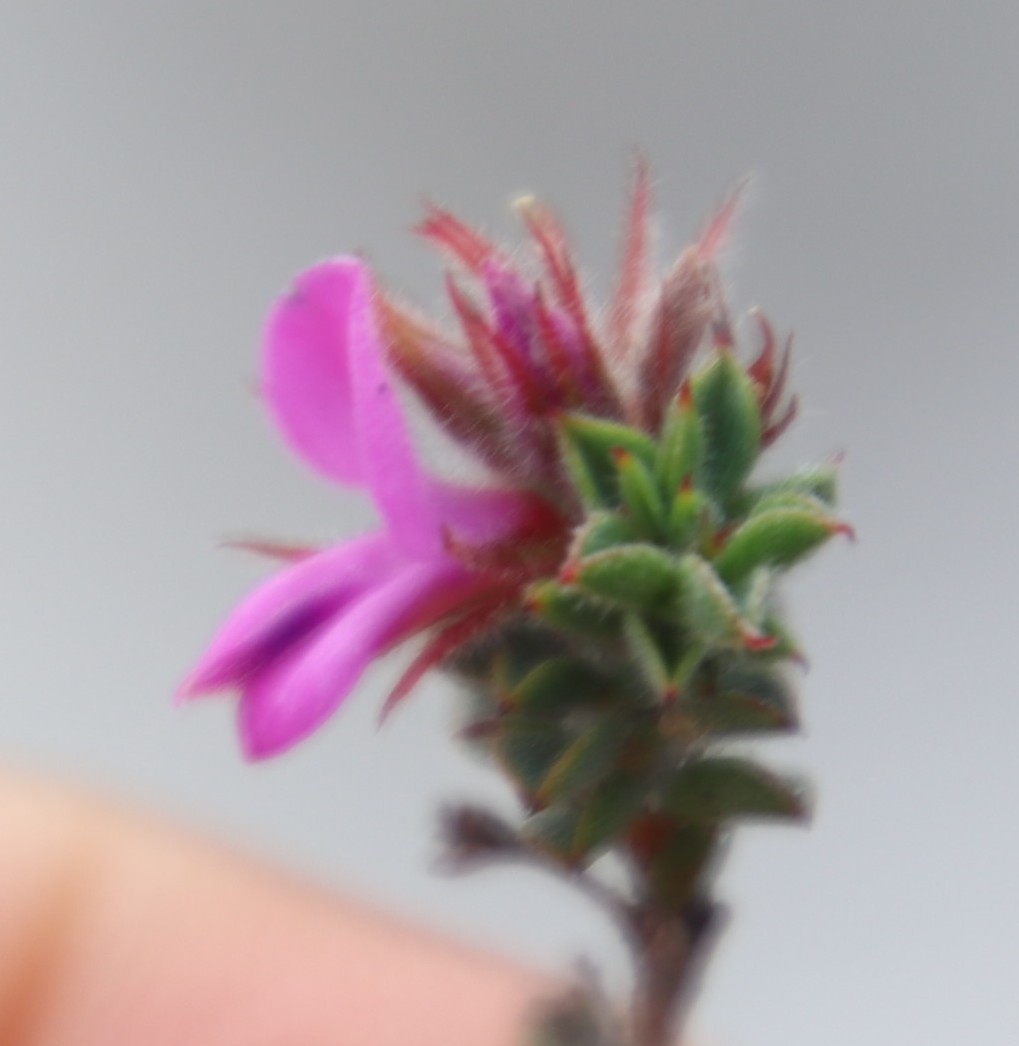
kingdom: Plantae
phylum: Tracheophyta
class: Magnoliopsida
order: Fabales
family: Fabaceae
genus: Indigofera
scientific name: Indigofera glomerata
